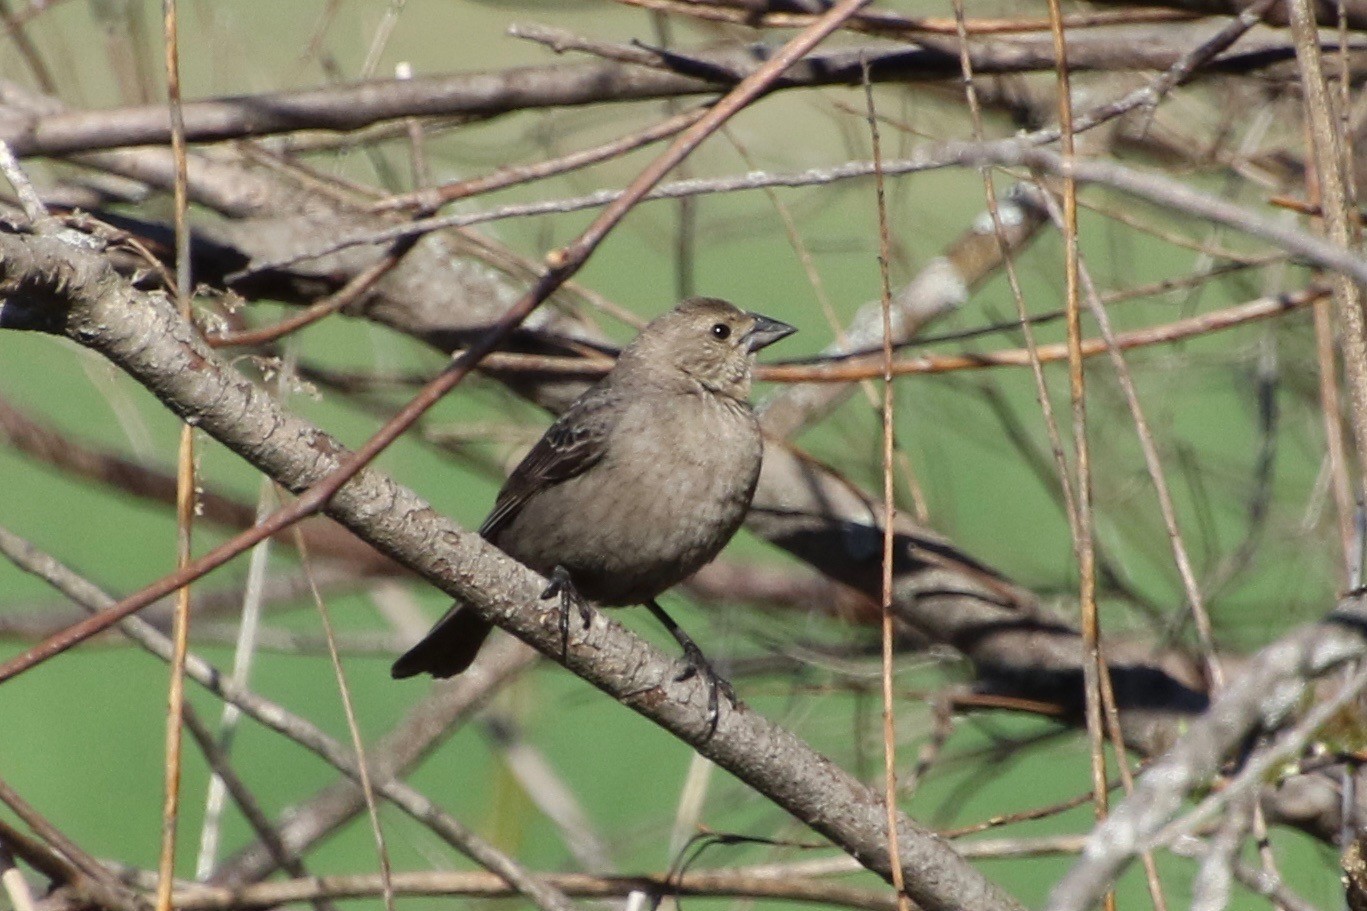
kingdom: Animalia
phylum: Chordata
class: Aves
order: Passeriformes
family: Icteridae
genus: Molothrus
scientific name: Molothrus ater
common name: Brown-headed cowbird
